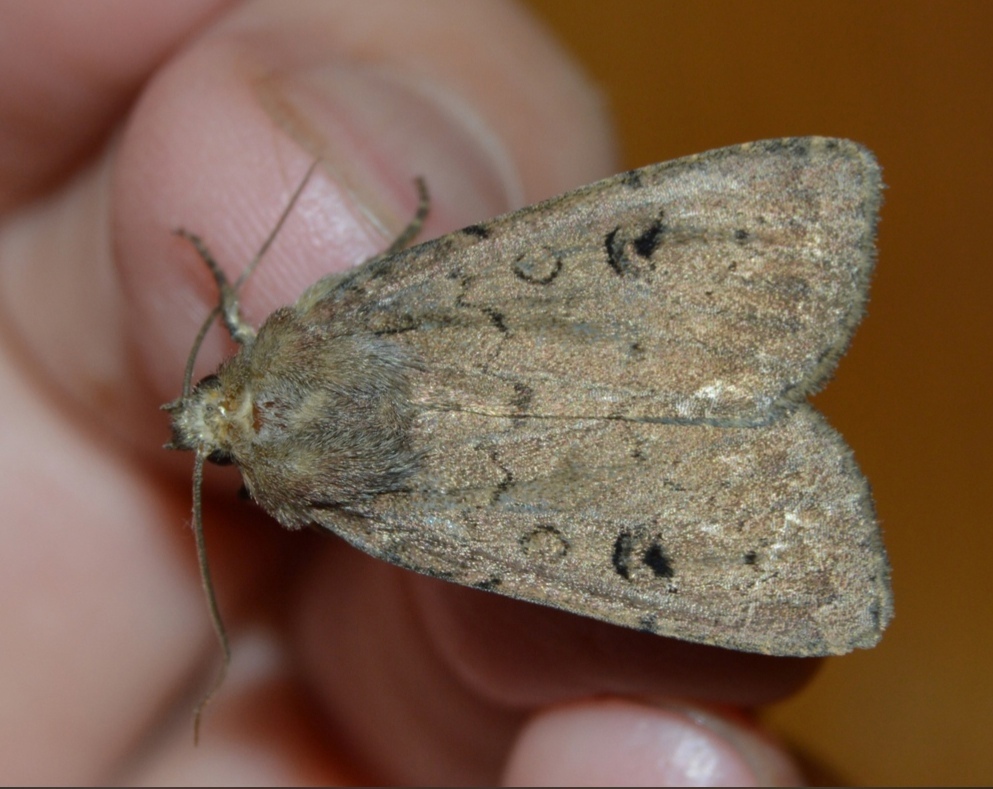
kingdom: Animalia
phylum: Arthropoda
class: Insecta
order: Lepidoptera
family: Noctuidae
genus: Graphiphora
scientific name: Graphiphora augur
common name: Double dart
